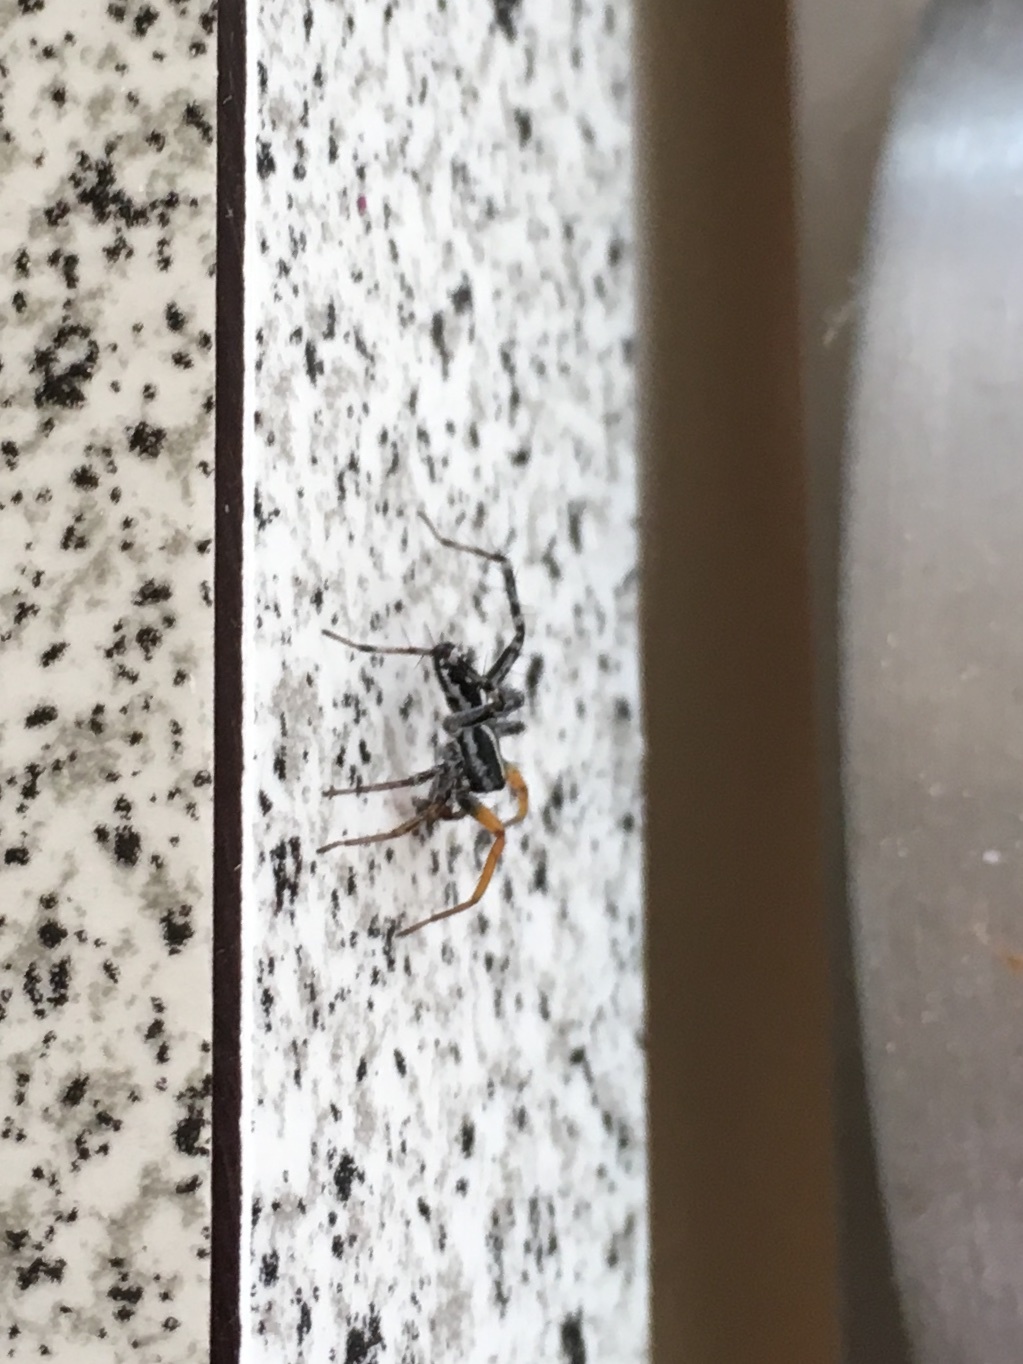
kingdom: Animalia
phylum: Arthropoda
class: Arachnida
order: Araneae
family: Corinnidae
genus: Nyssus
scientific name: Nyssus coloripes
